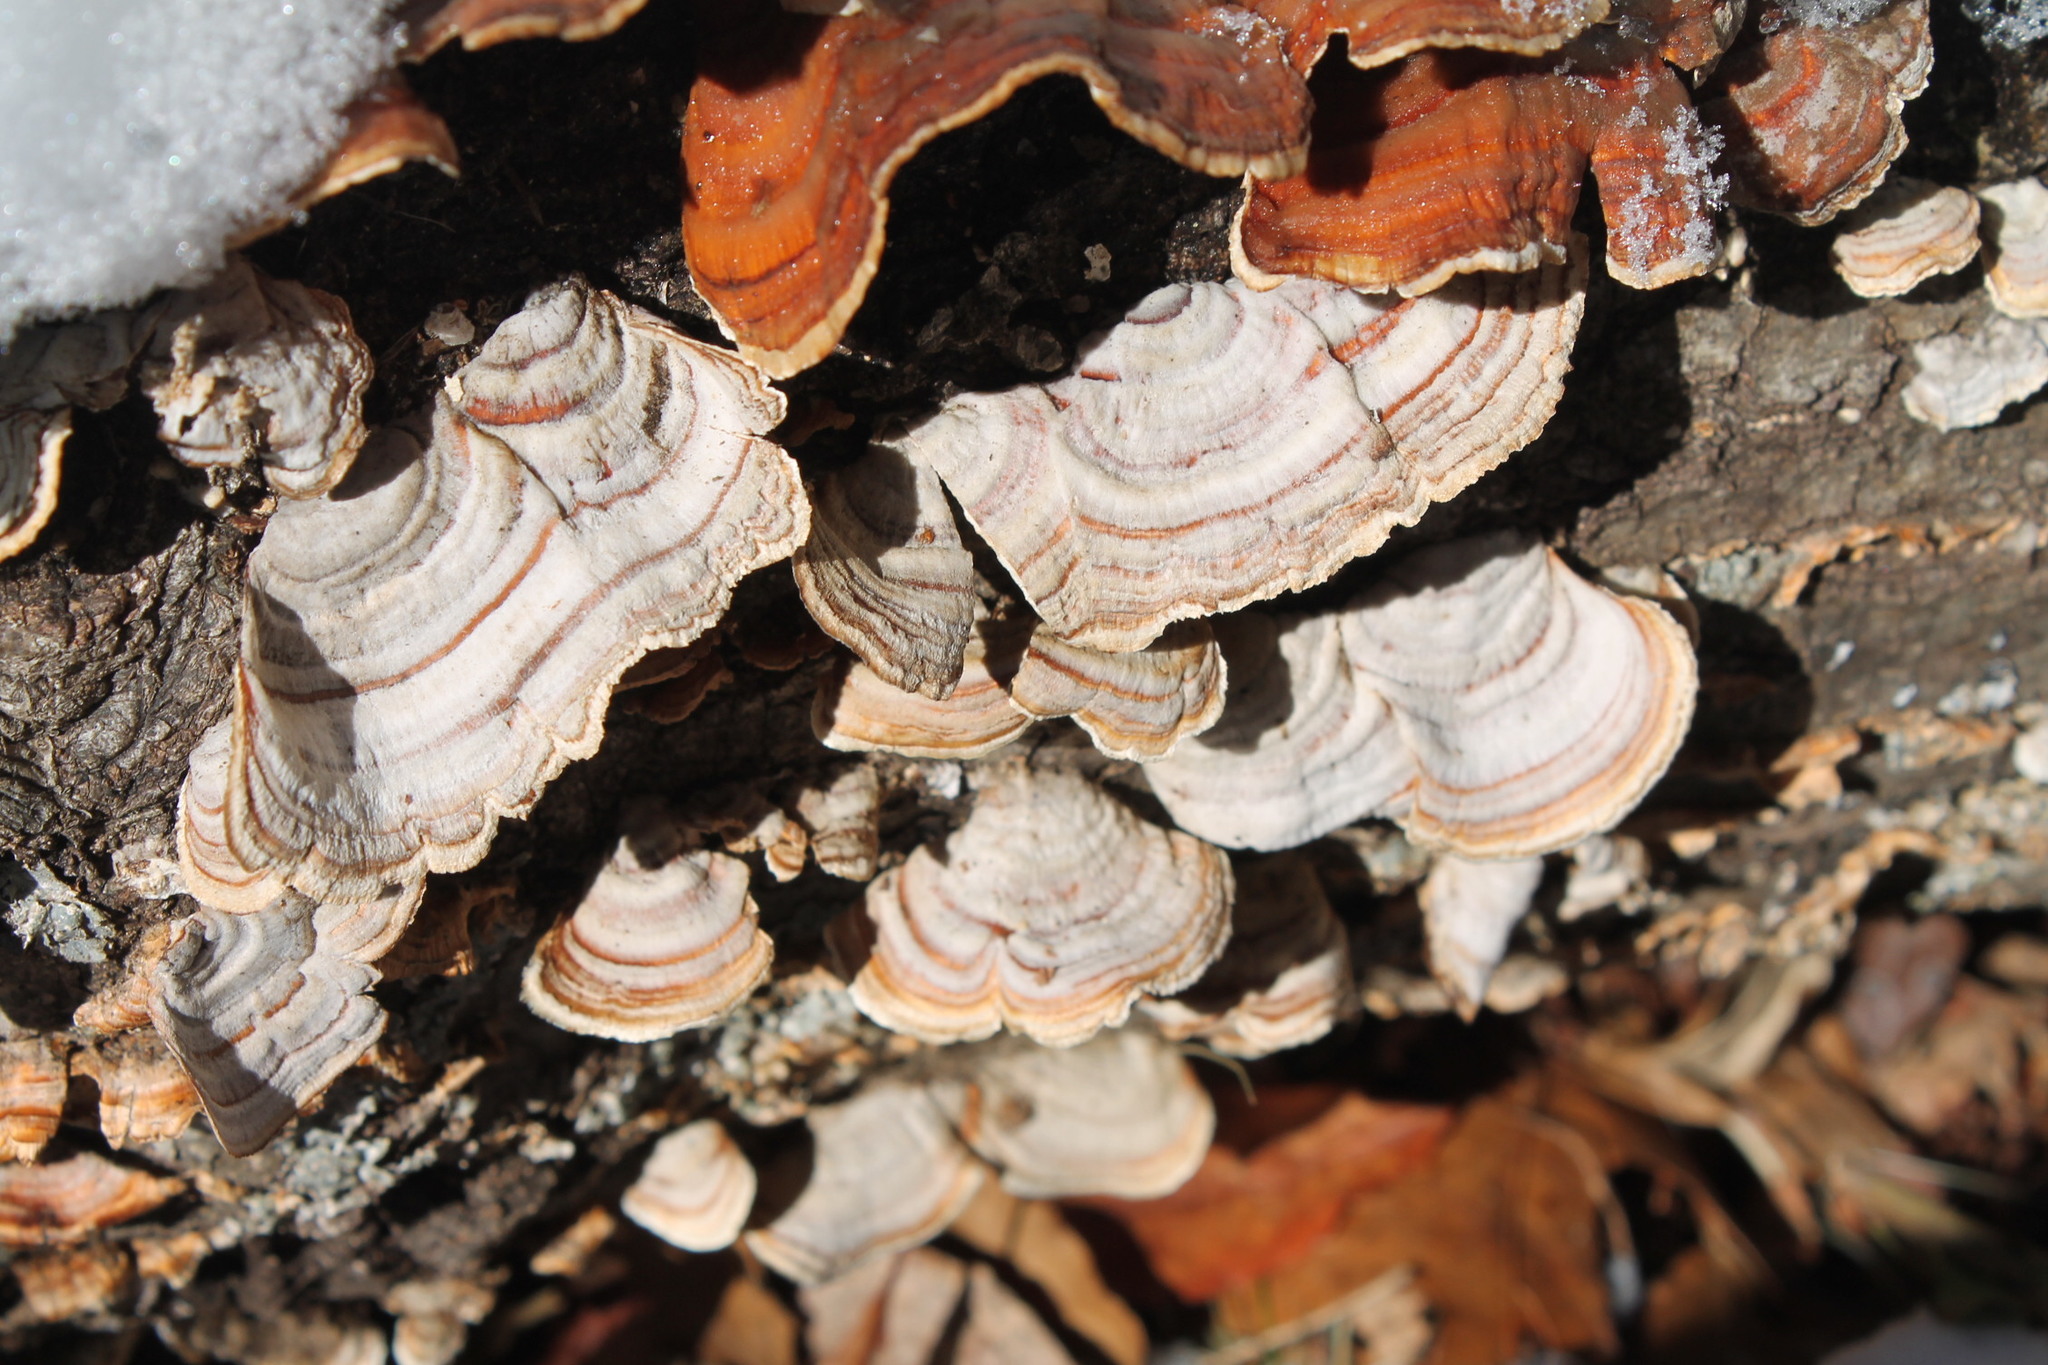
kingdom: Fungi
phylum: Basidiomycota
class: Agaricomycetes
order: Russulales
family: Stereaceae
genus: Stereum
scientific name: Stereum lobatum
